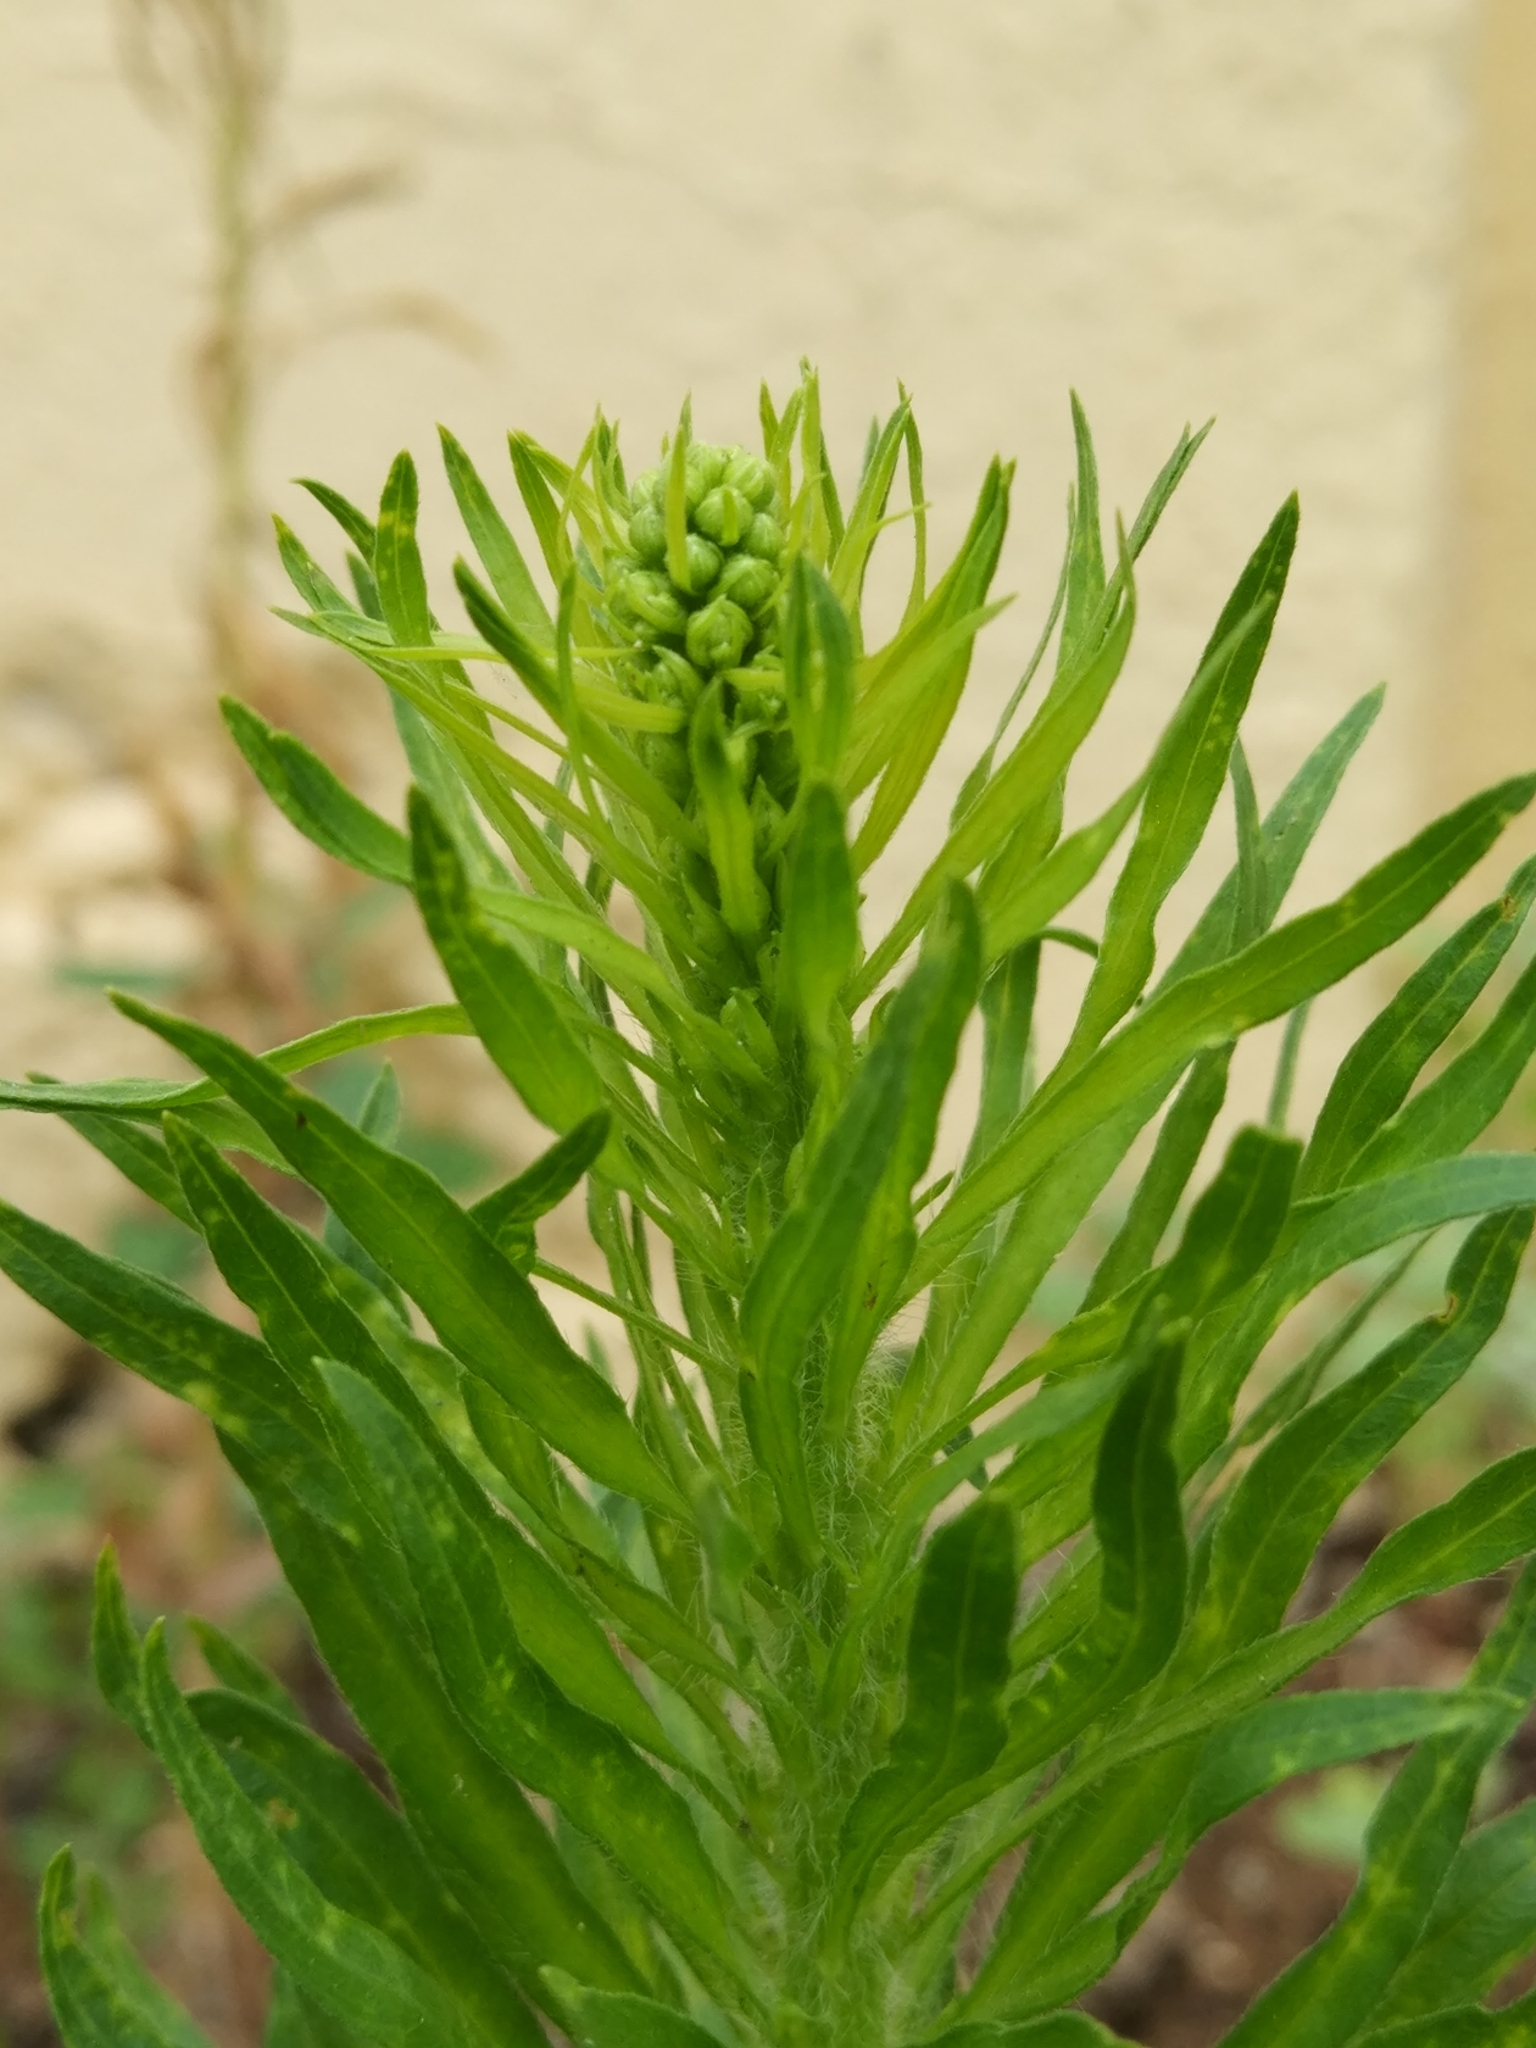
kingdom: Plantae
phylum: Tracheophyta
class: Magnoliopsida
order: Asterales
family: Asteraceae
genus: Erigeron
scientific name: Erigeron canadensis
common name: Canadian fleabane
